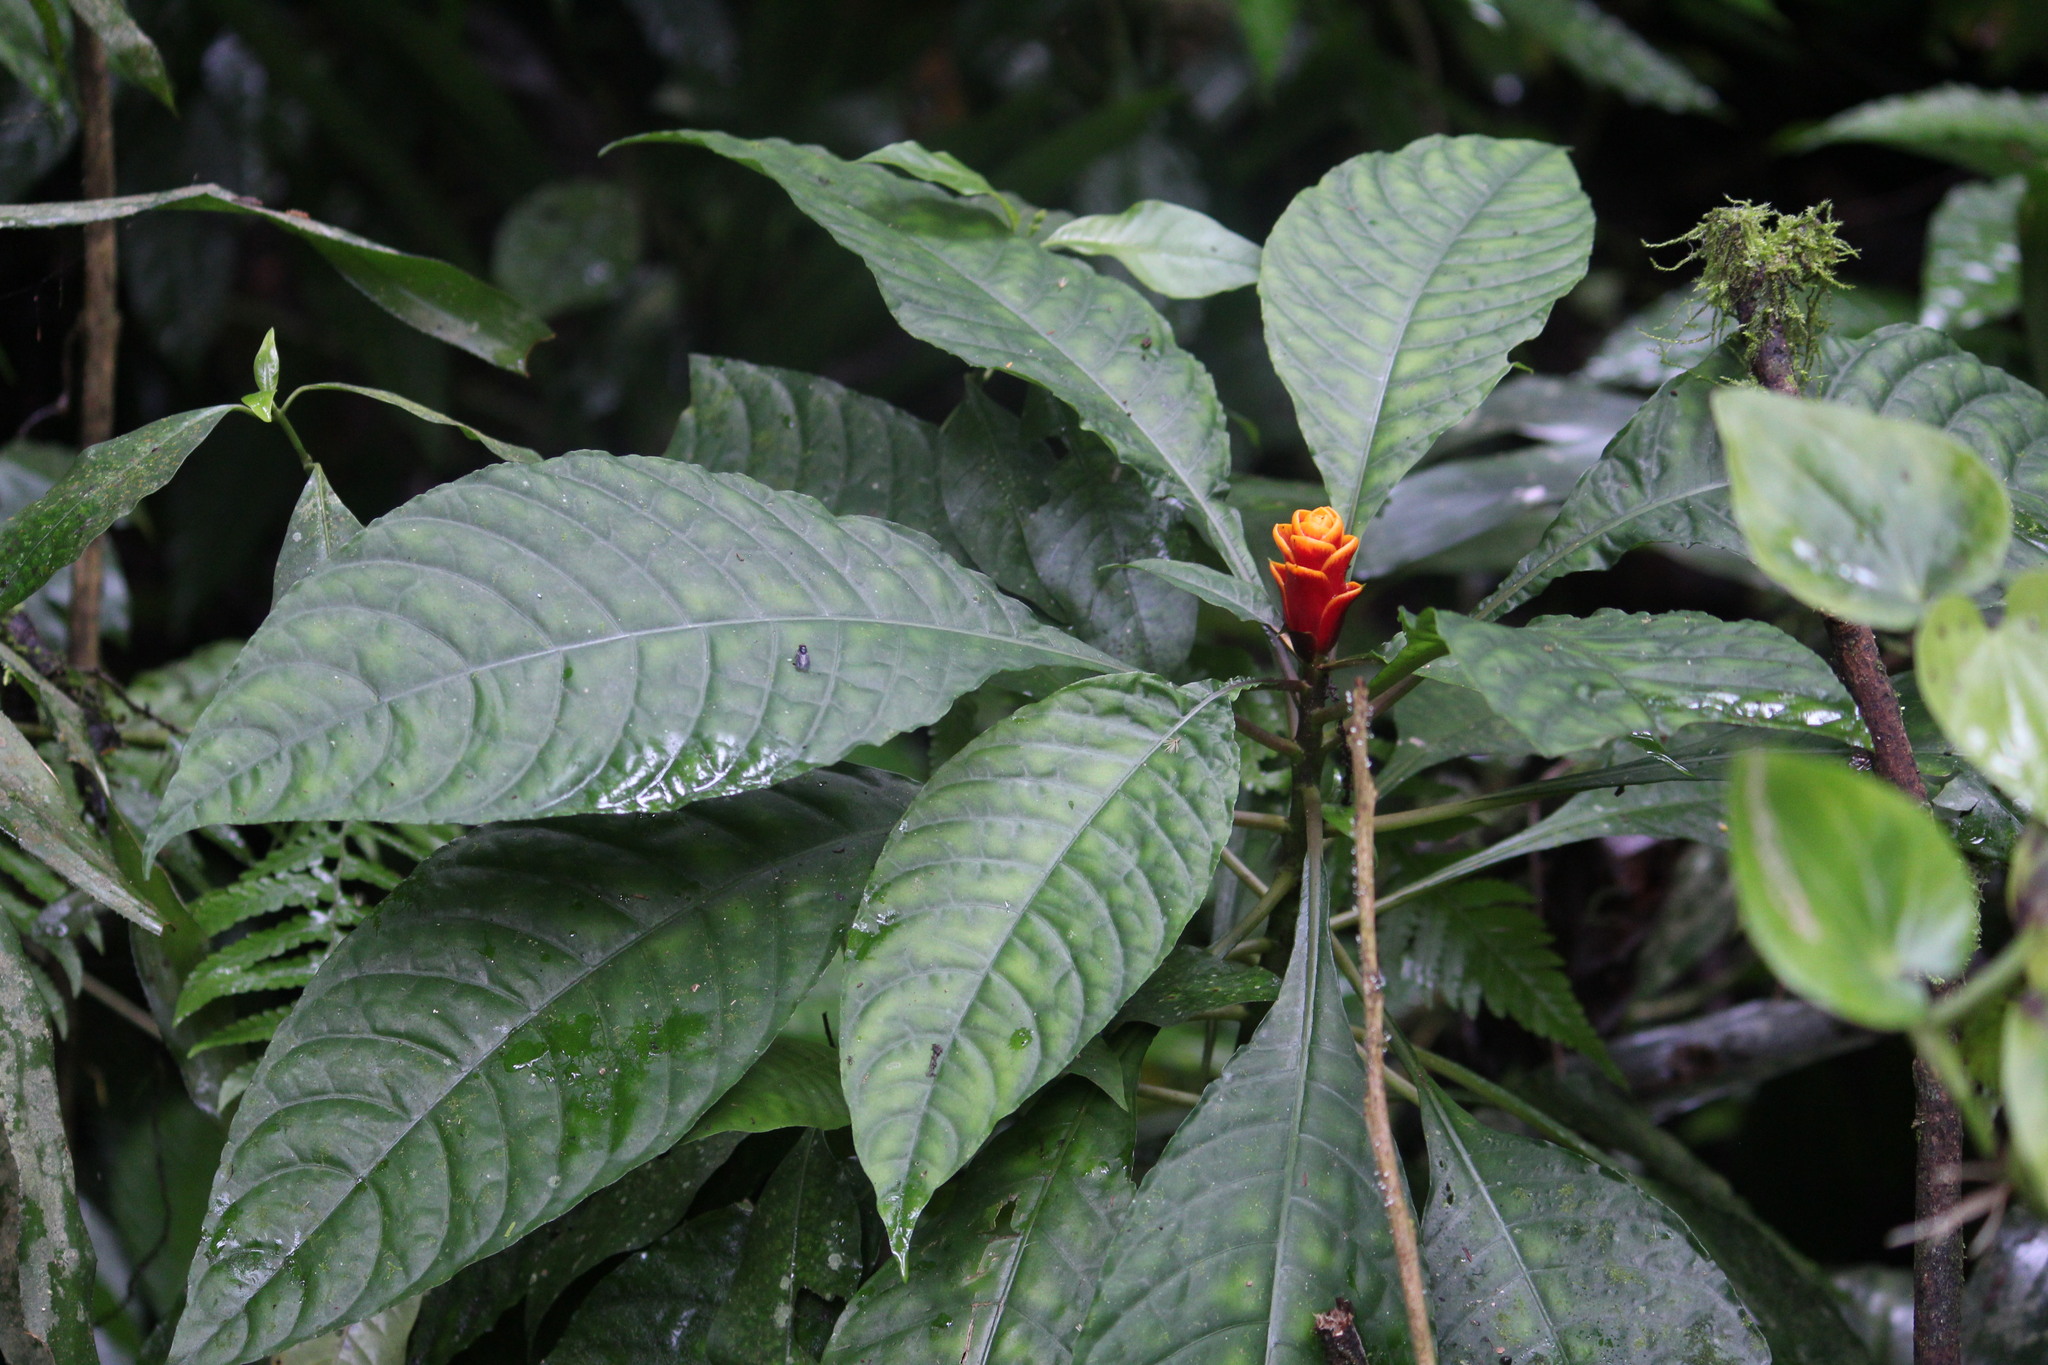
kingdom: Plantae
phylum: Tracheophyta
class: Magnoliopsida
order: Lamiales
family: Acanthaceae
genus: Aphelandra
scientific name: Aphelandra liboniana
